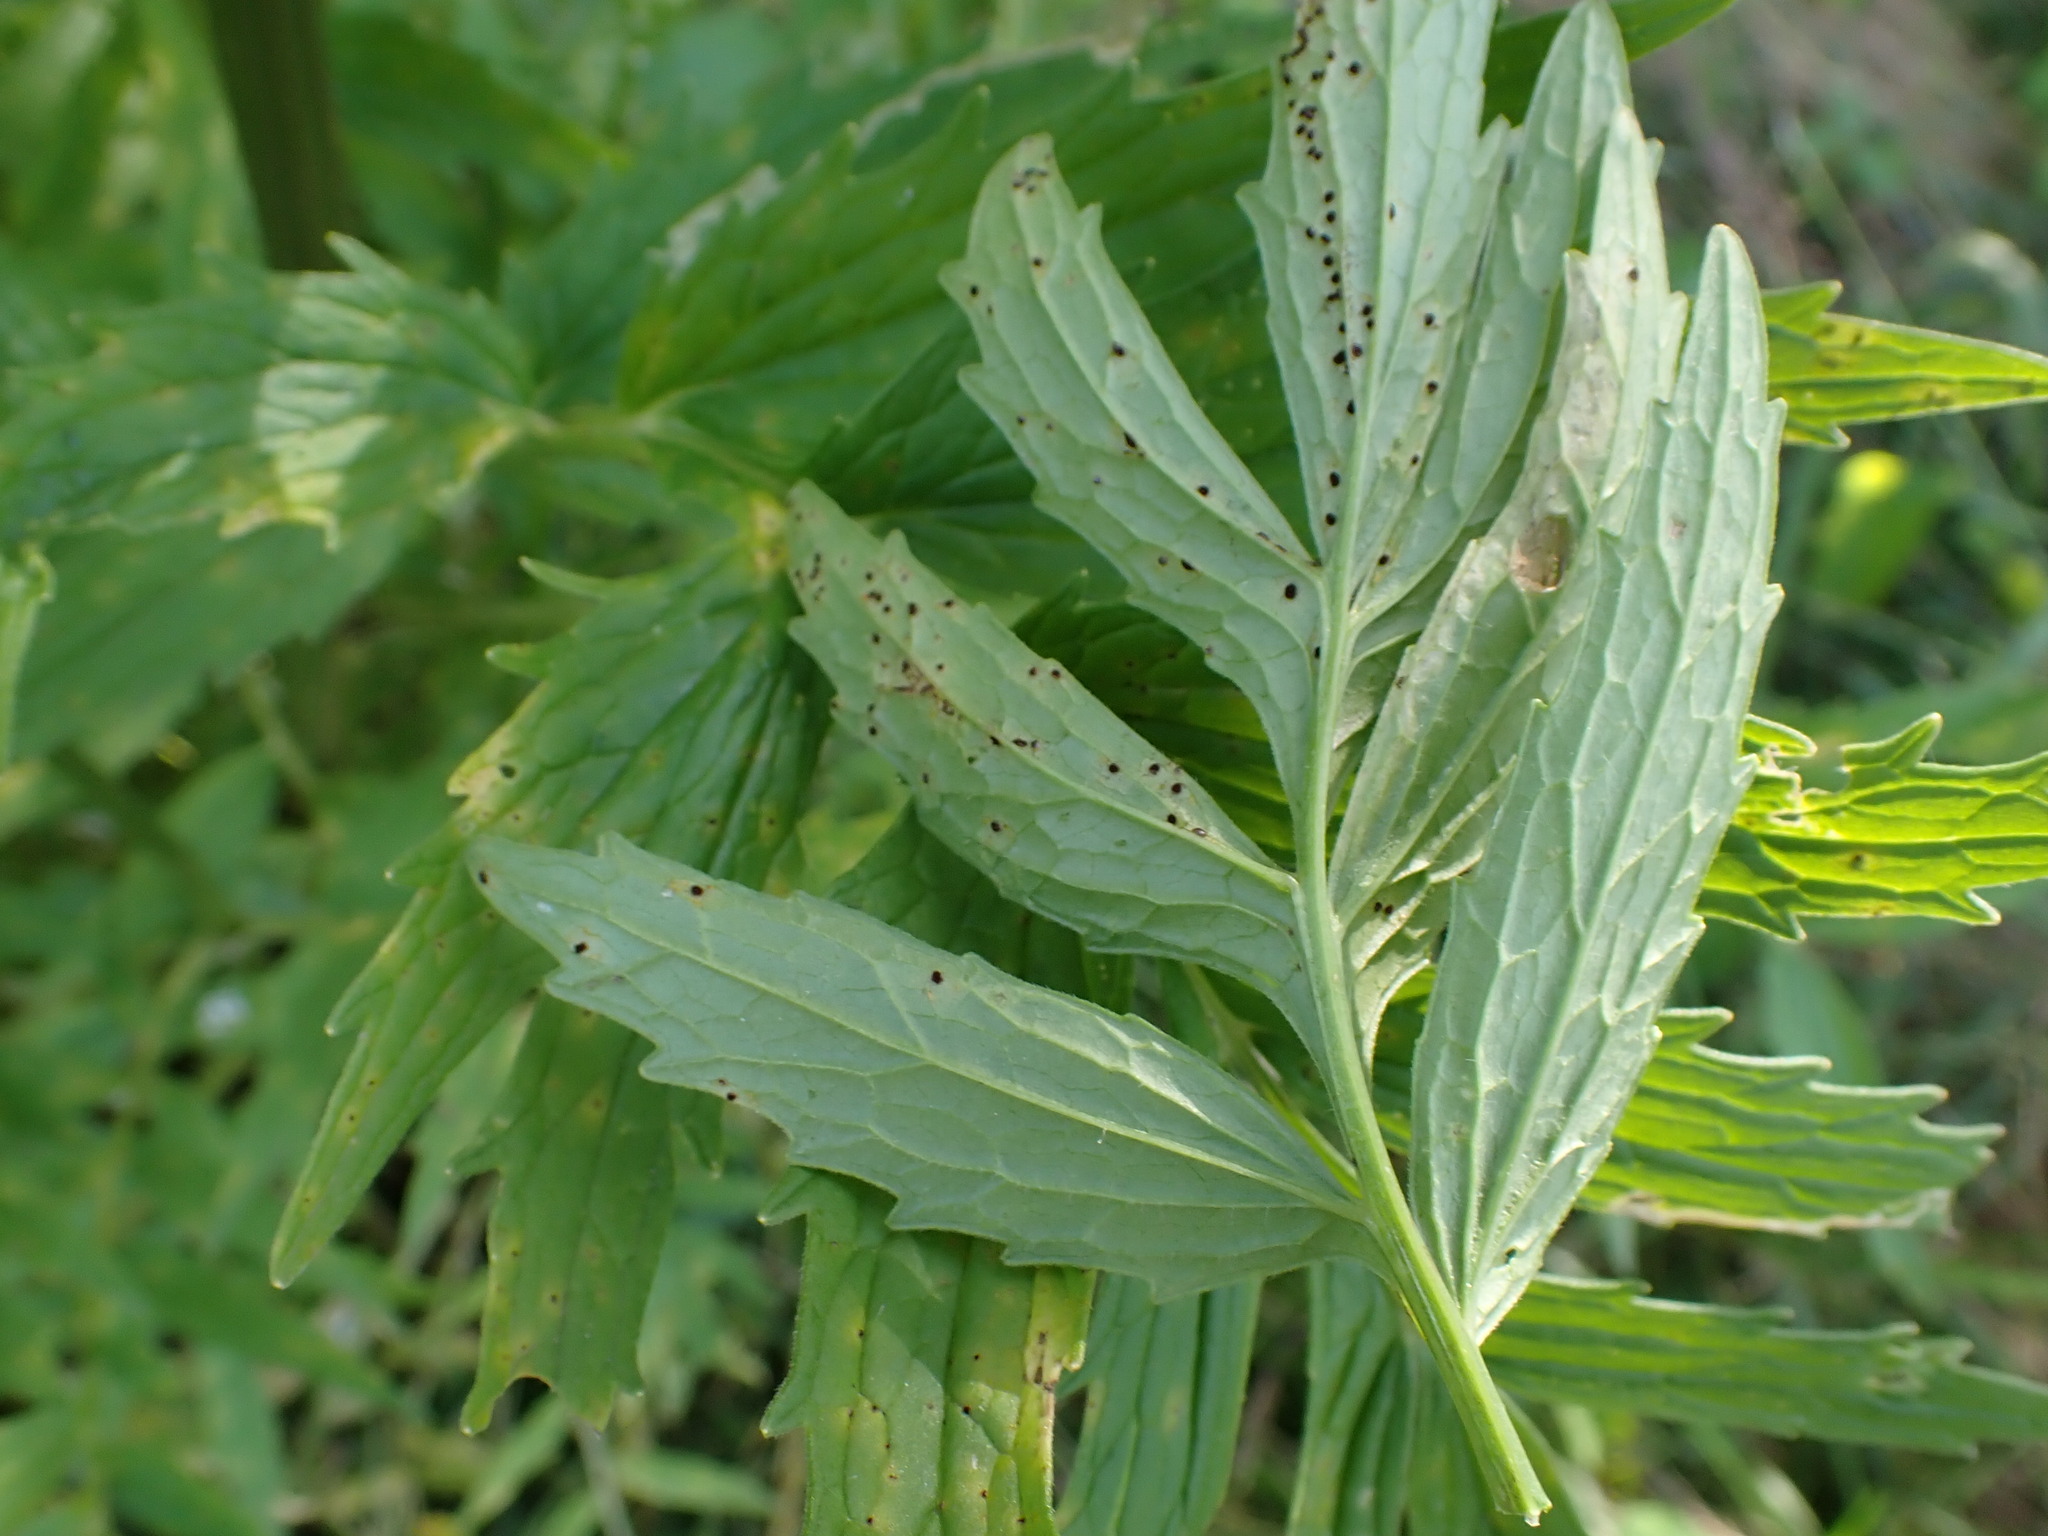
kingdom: Fungi
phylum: Basidiomycota
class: Pucciniomycetes
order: Pucciniales
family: Pucciniaceae
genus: Uromyces
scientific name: Uromyces valerianae
